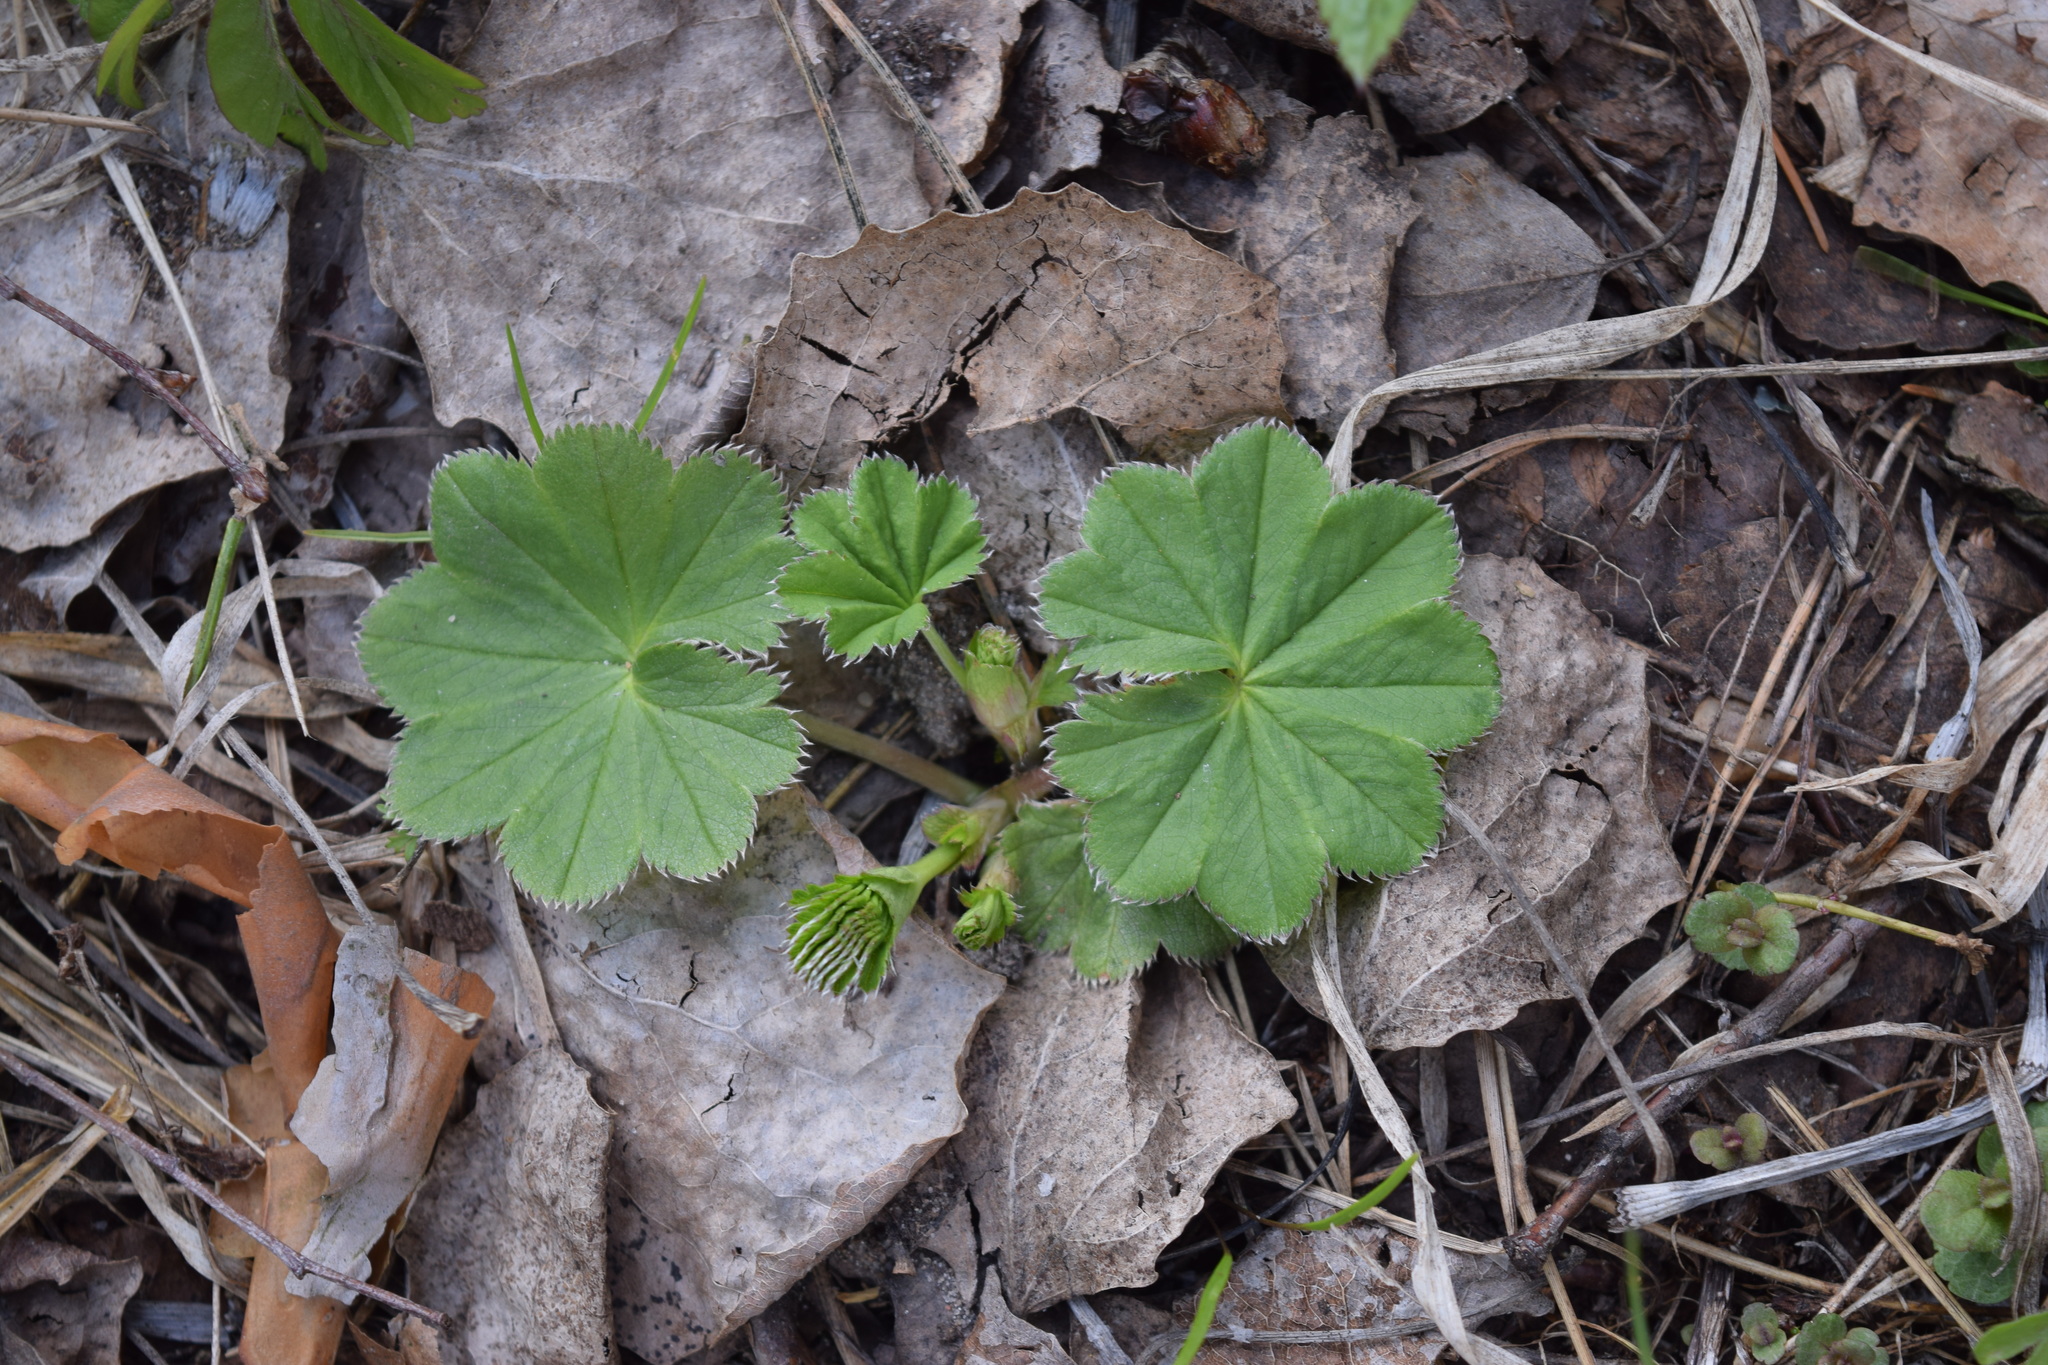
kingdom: Plantae
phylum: Tracheophyta
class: Magnoliopsida
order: Rosales
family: Rosaceae
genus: Alchemilla
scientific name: Alchemilla
